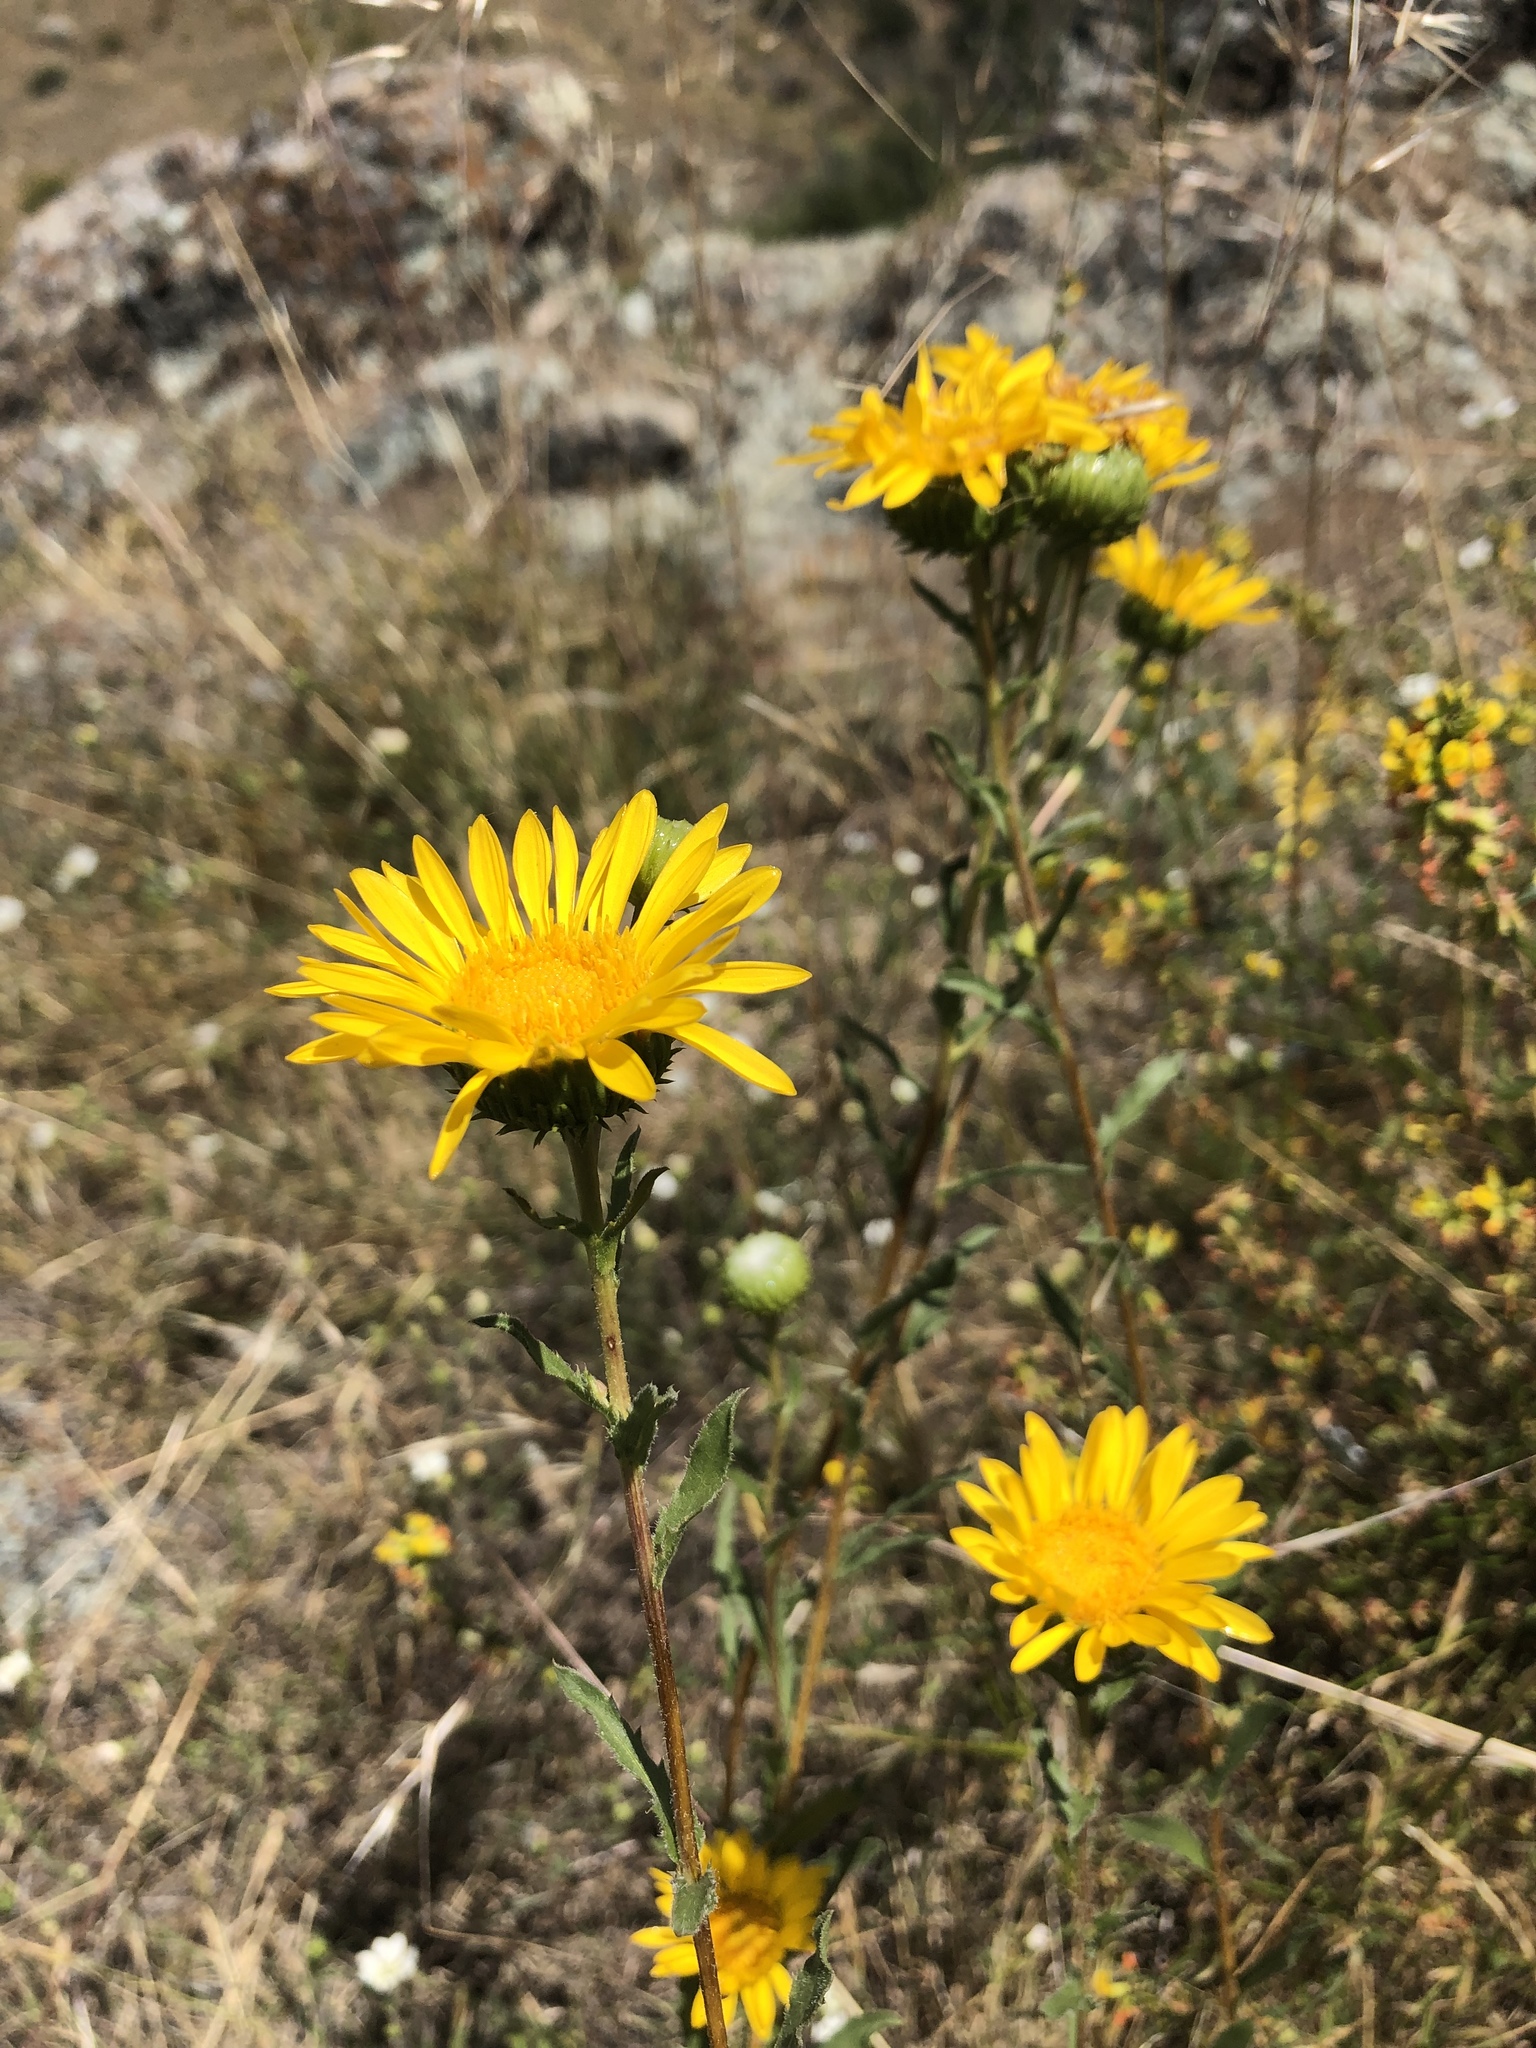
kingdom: Plantae
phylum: Tracheophyta
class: Magnoliopsida
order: Asterales
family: Asteraceae
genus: Grindelia
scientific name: Grindelia hirsutula
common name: Hairy gumweed
